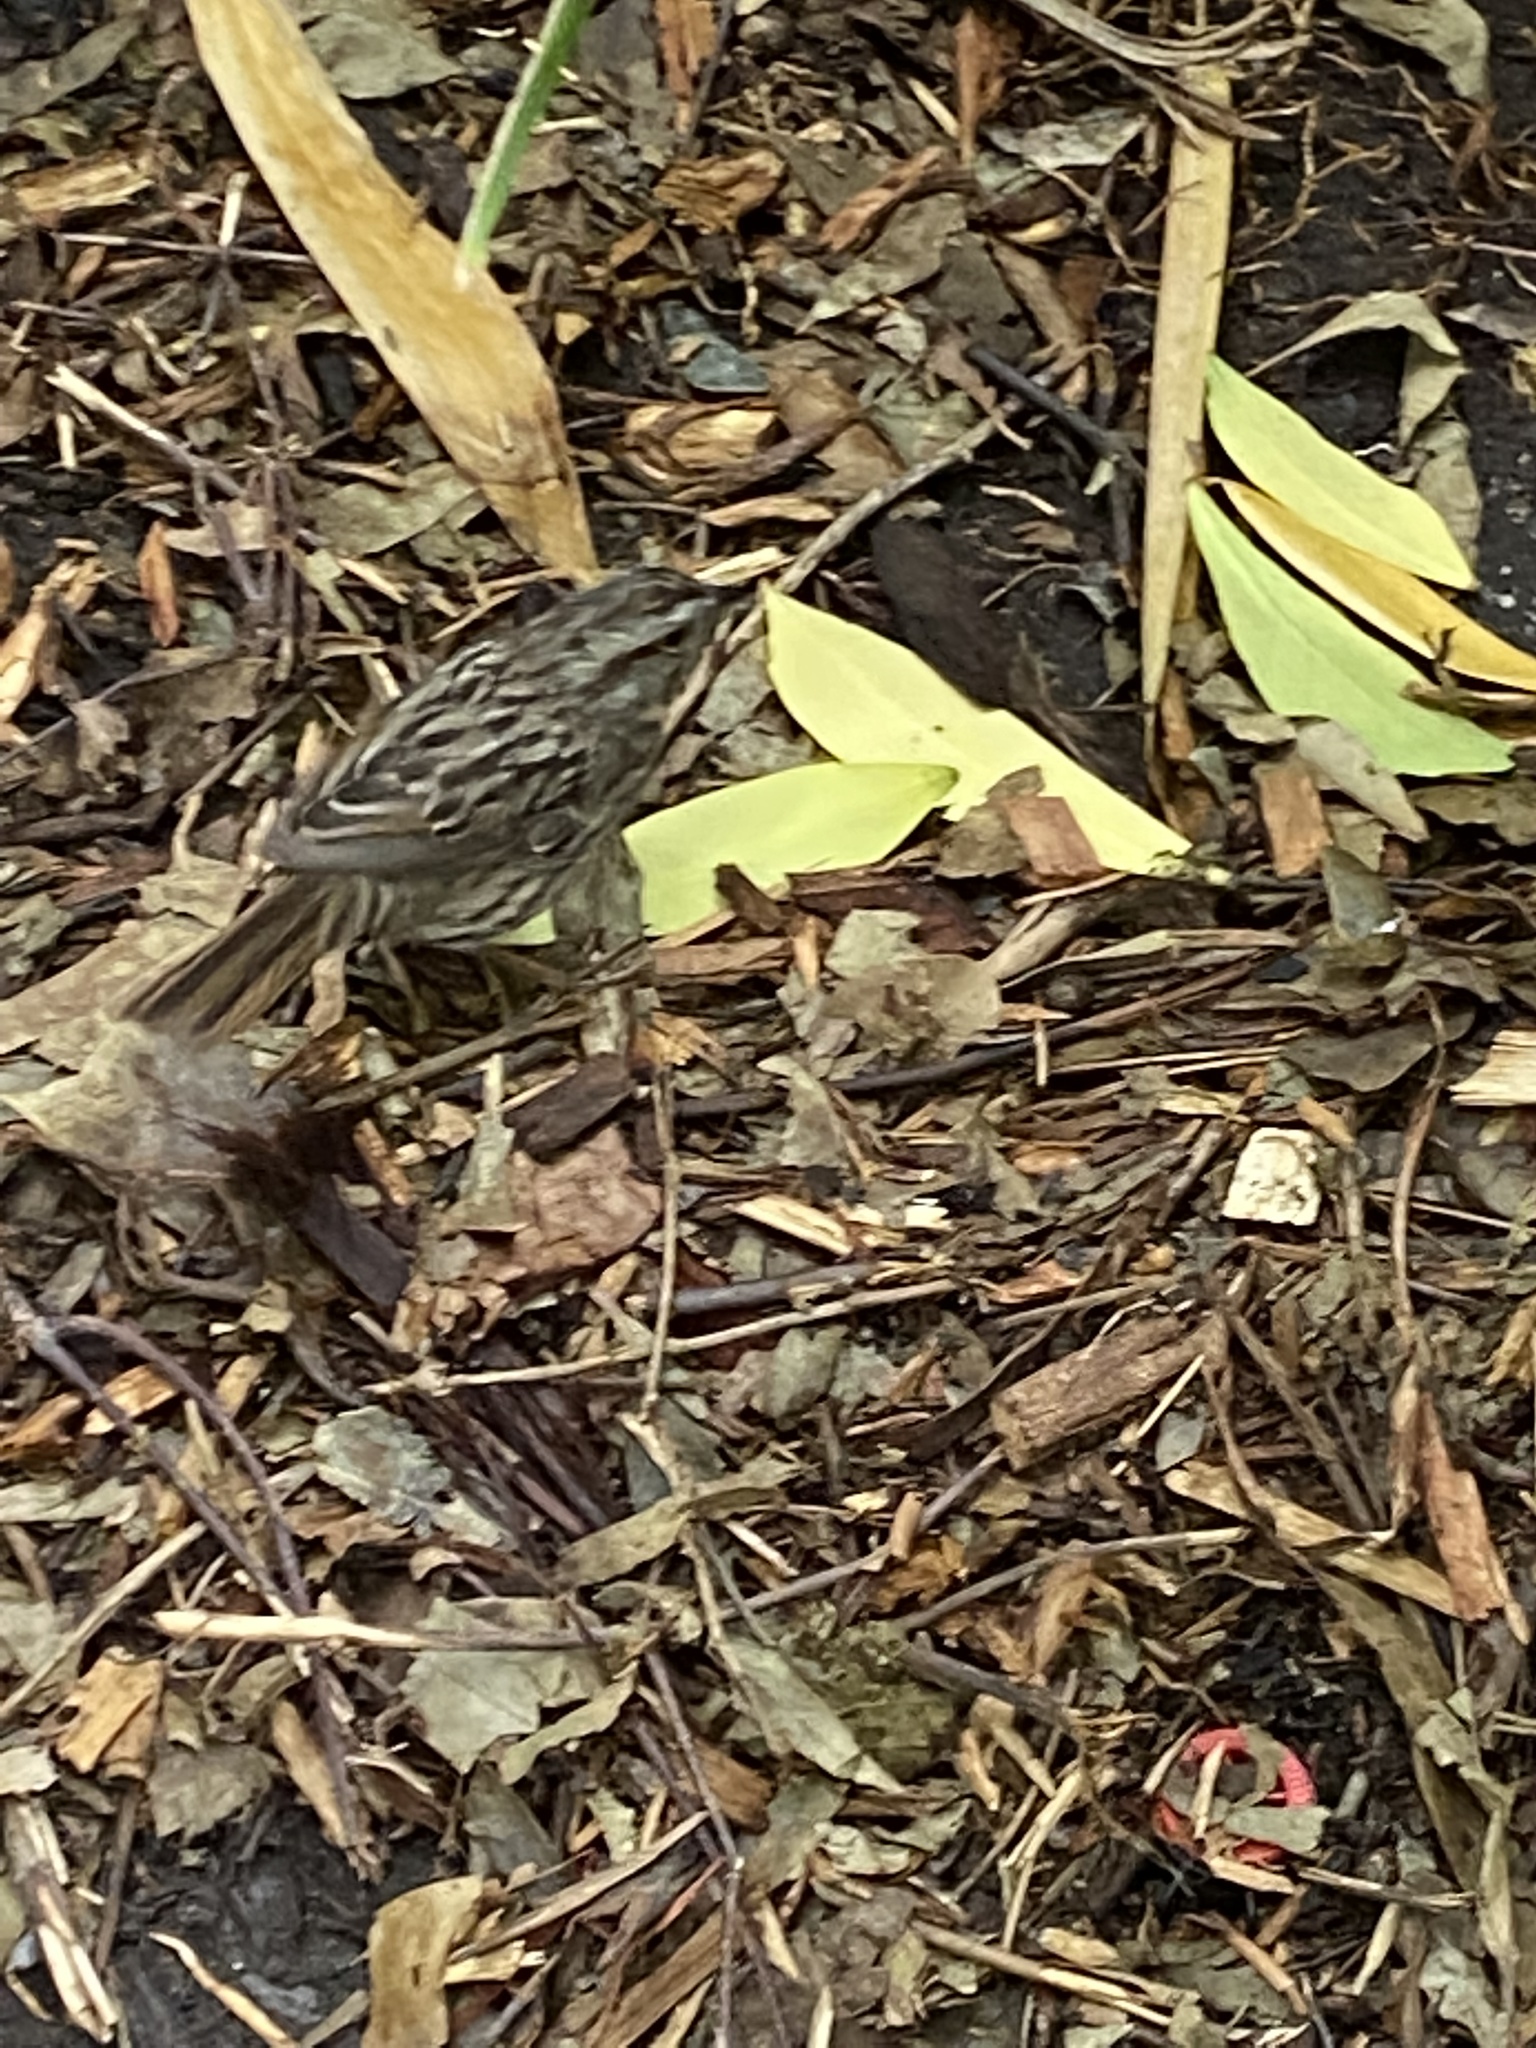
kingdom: Animalia
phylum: Chordata
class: Aves
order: Passeriformes
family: Passerellidae
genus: Melospiza
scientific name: Melospiza melodia
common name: Song sparrow
